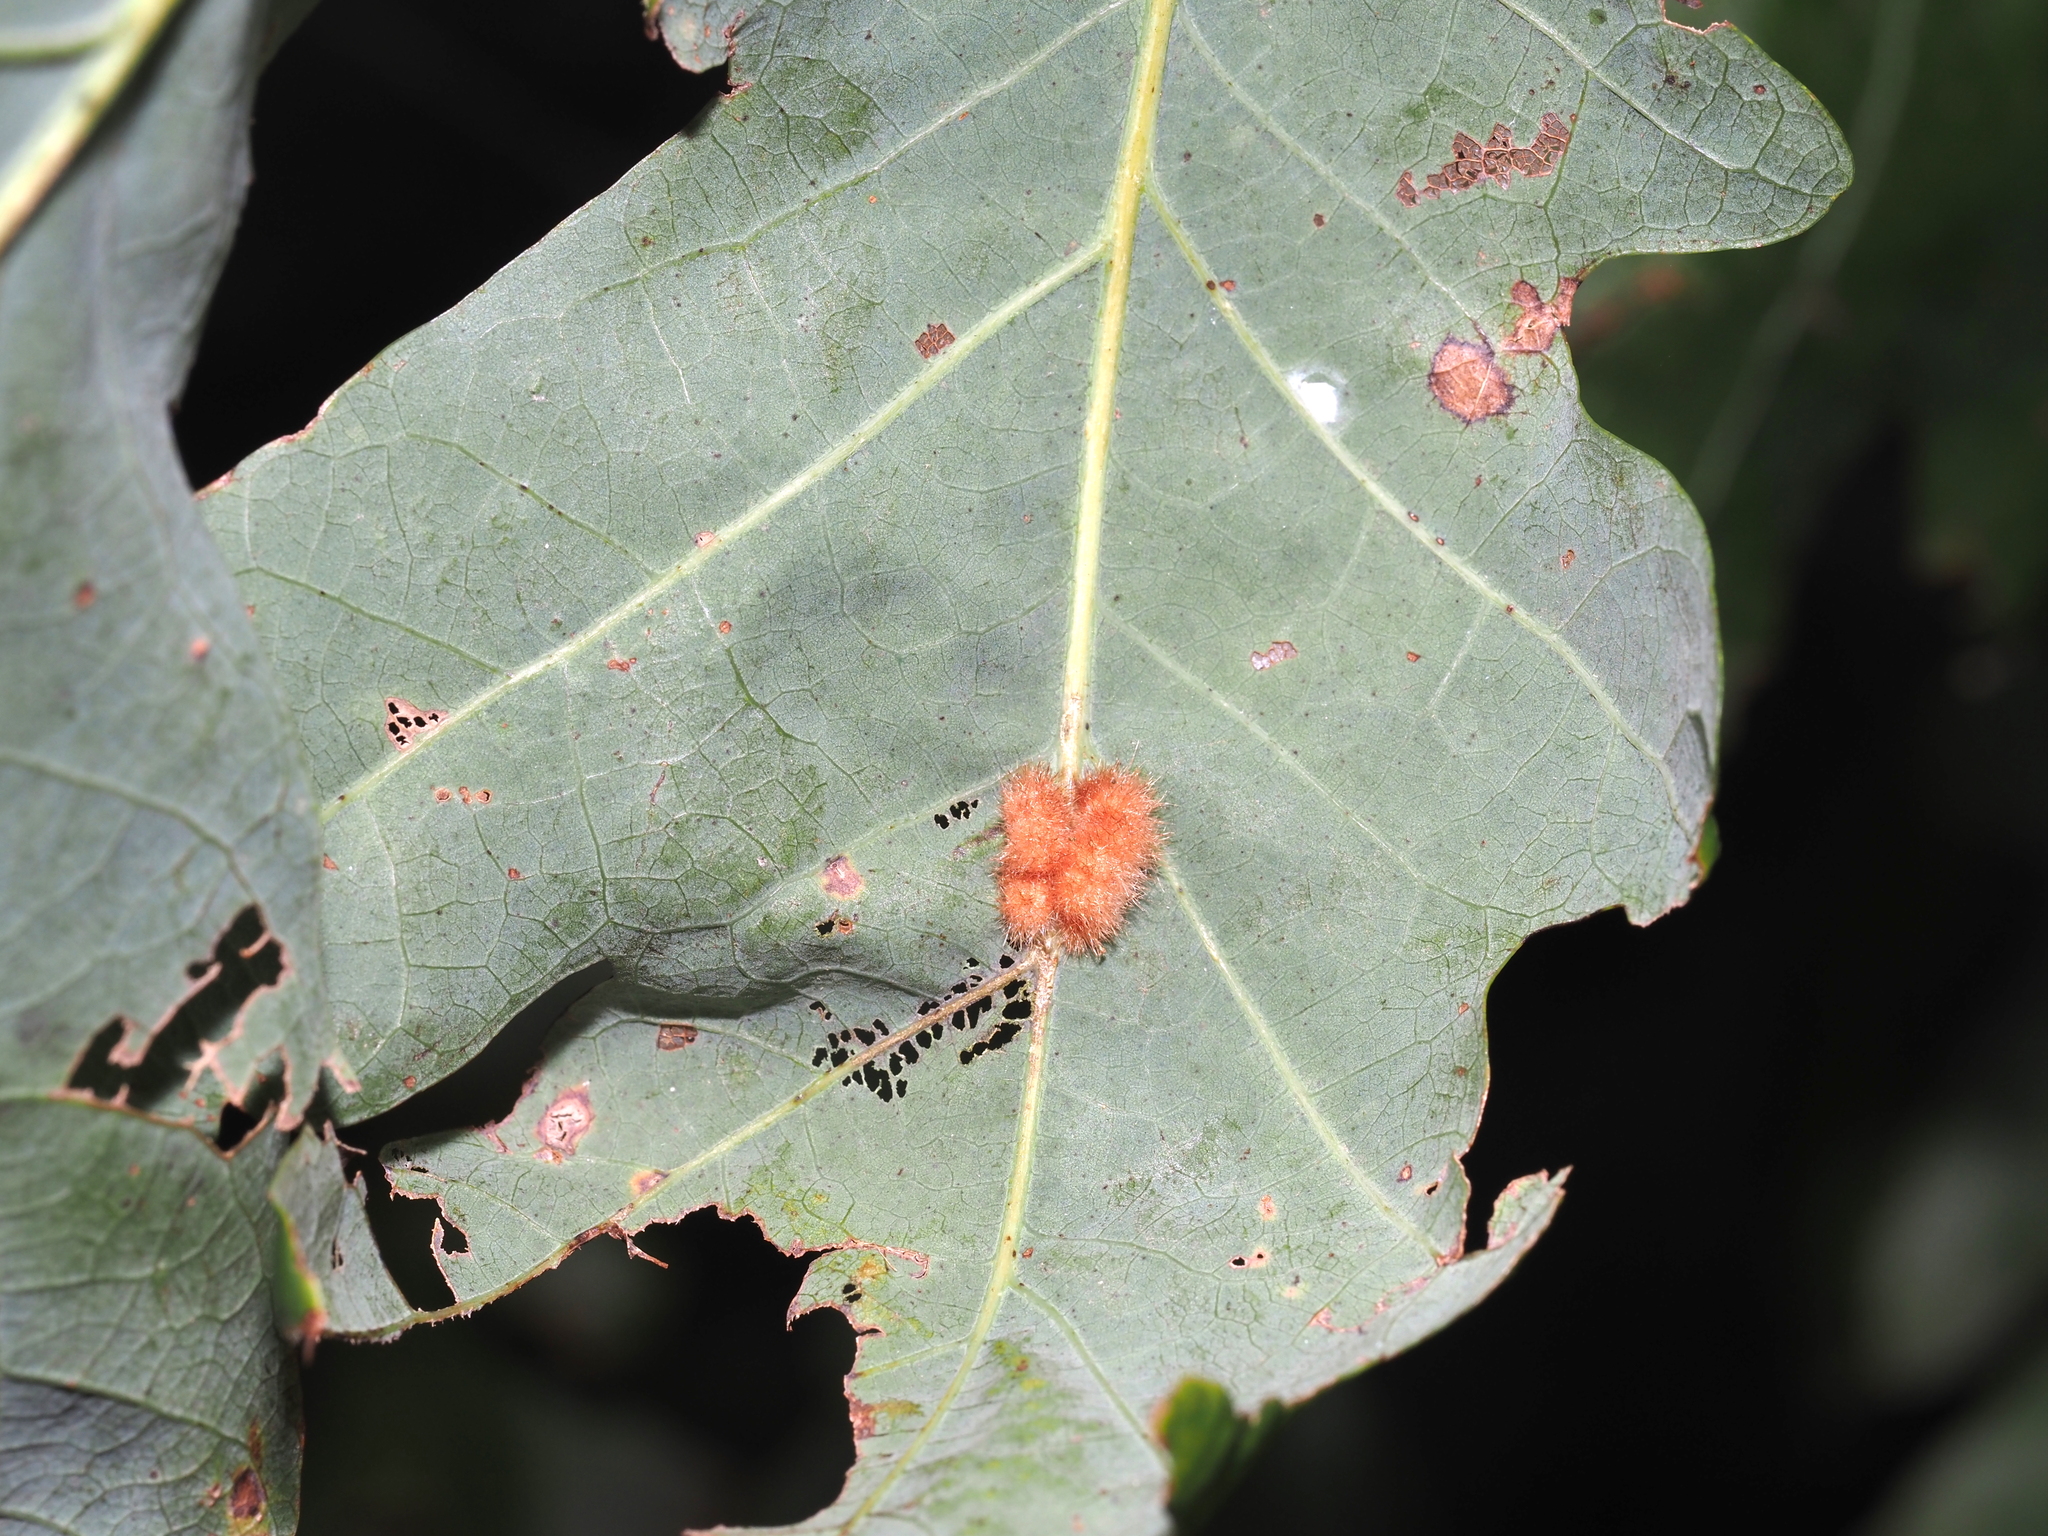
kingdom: Animalia
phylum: Arthropoda
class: Insecta
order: Hymenoptera
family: Cynipidae
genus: Andricus
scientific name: Andricus
